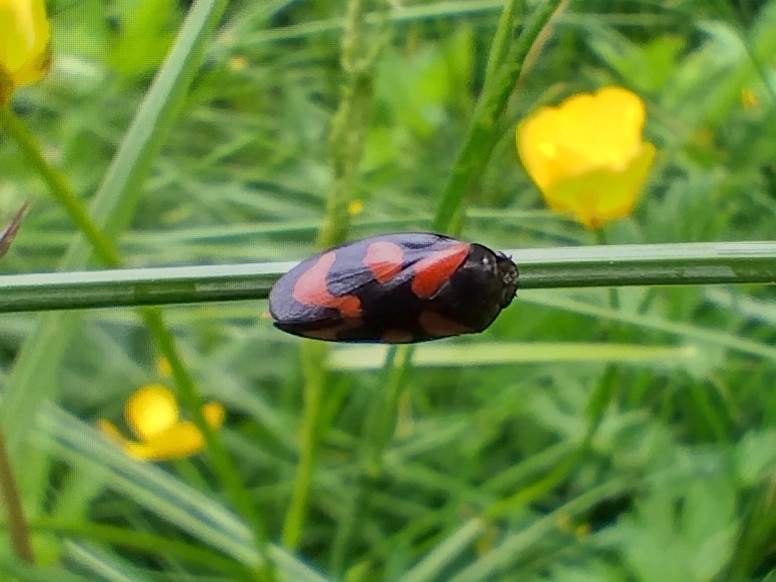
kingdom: Animalia
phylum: Arthropoda
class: Insecta
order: Hemiptera
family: Cercopidae
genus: Cercopis
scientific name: Cercopis vulnerata
